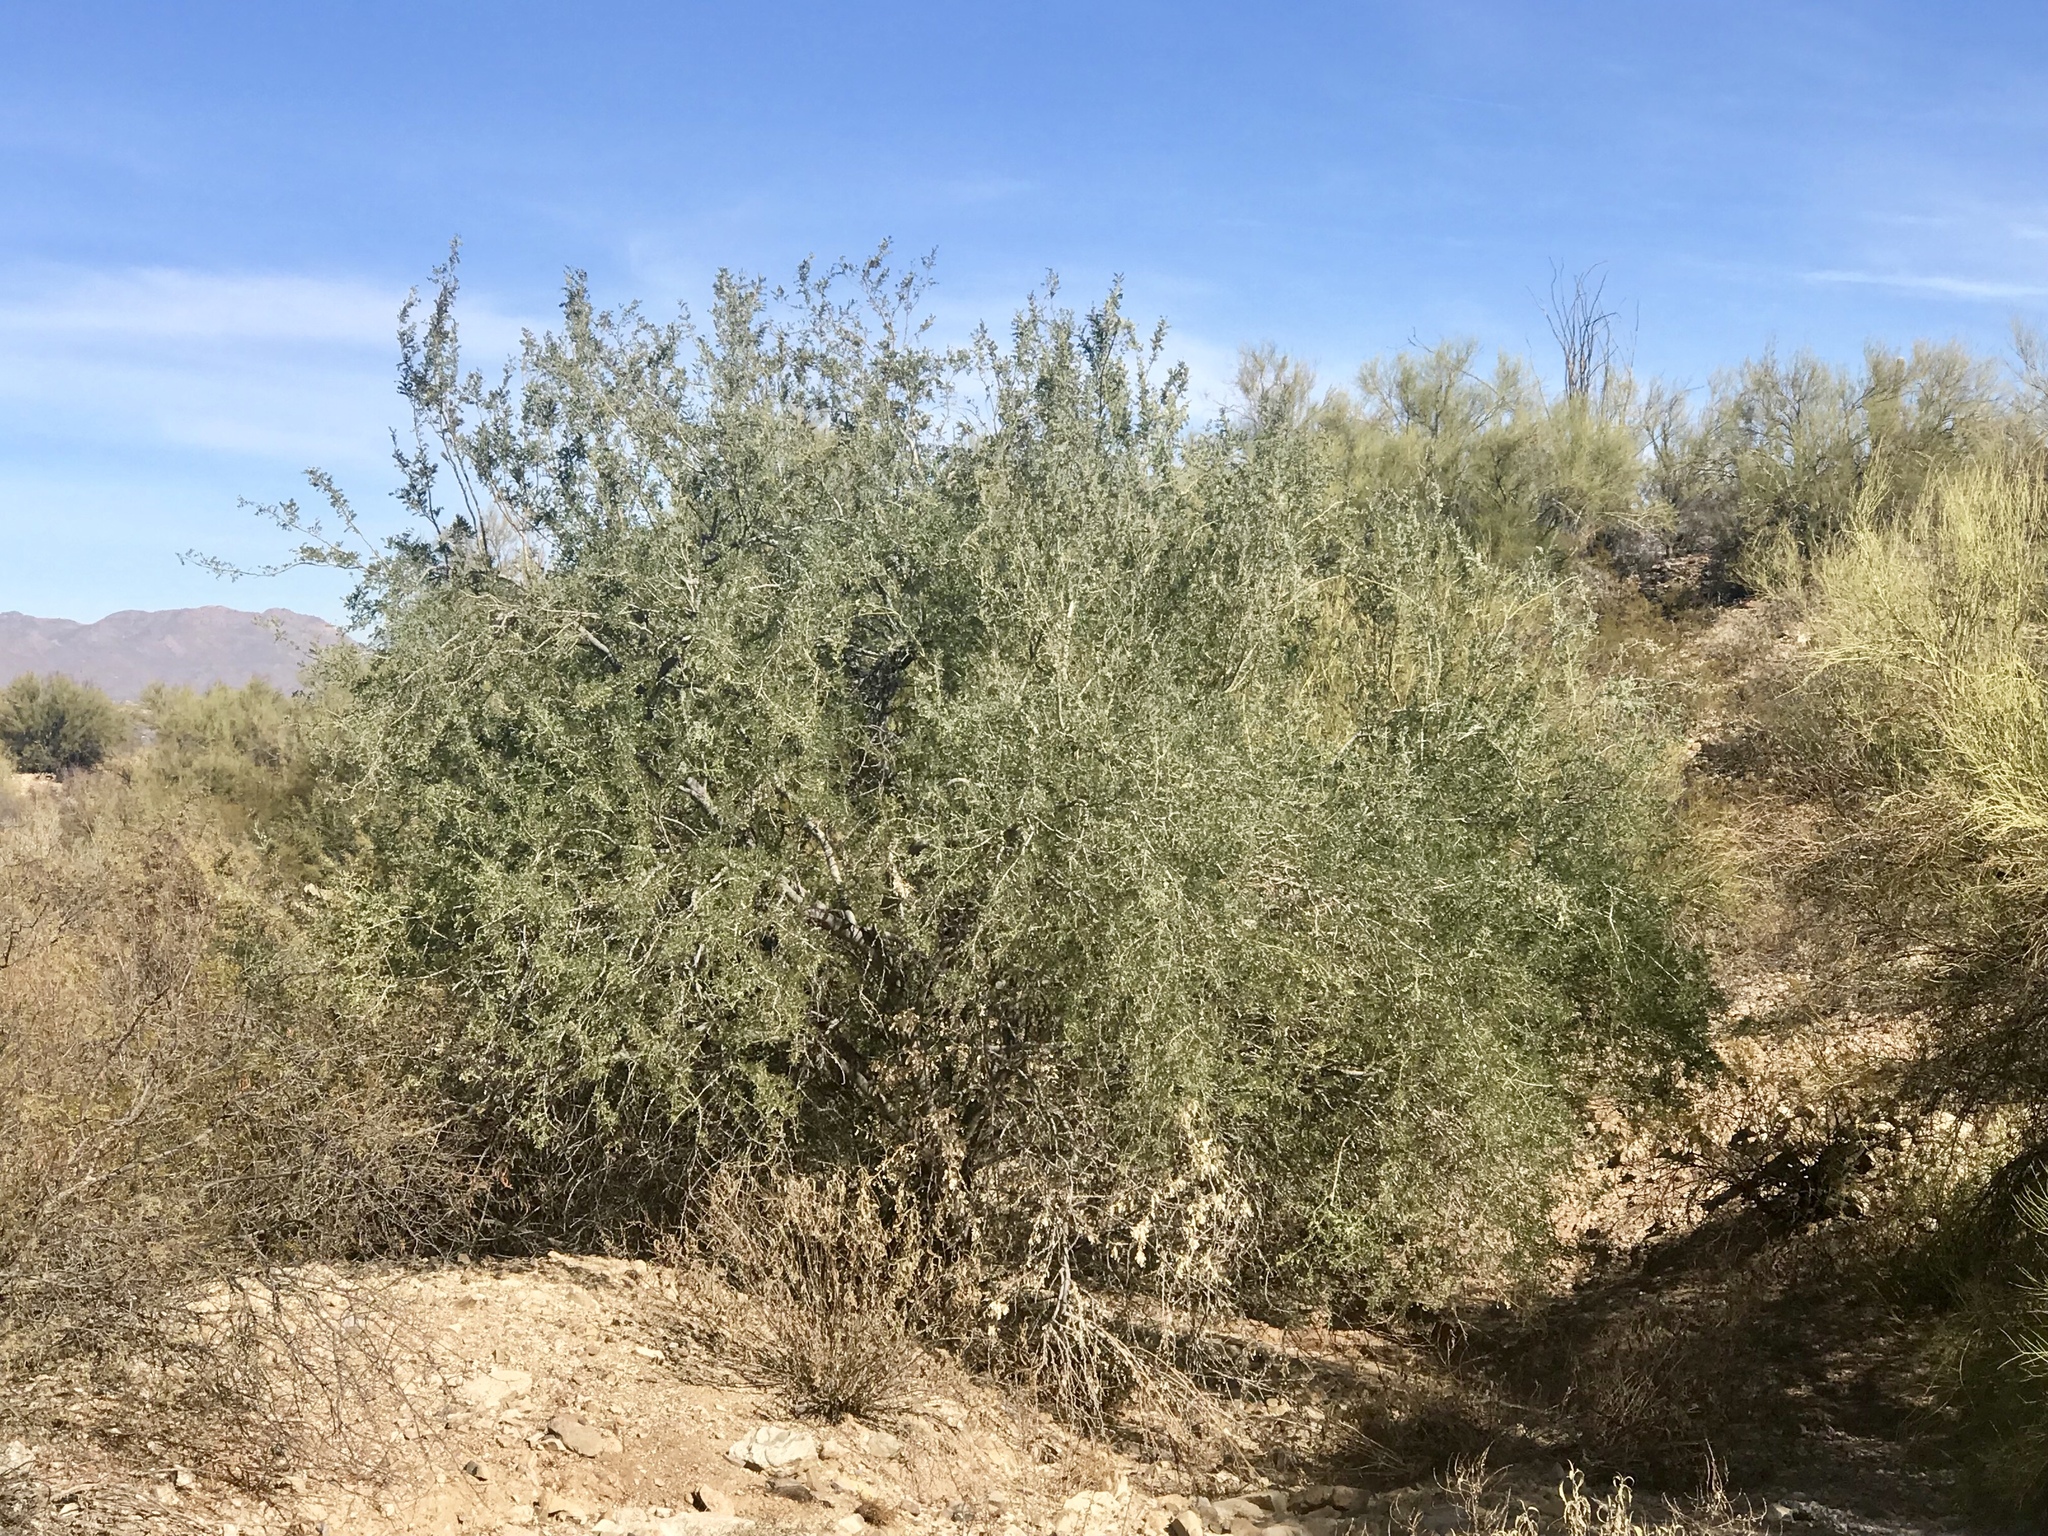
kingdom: Plantae
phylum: Tracheophyta
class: Magnoliopsida
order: Fabales
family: Fabaceae
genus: Olneya
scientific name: Olneya tesota
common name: Desert ironwood
